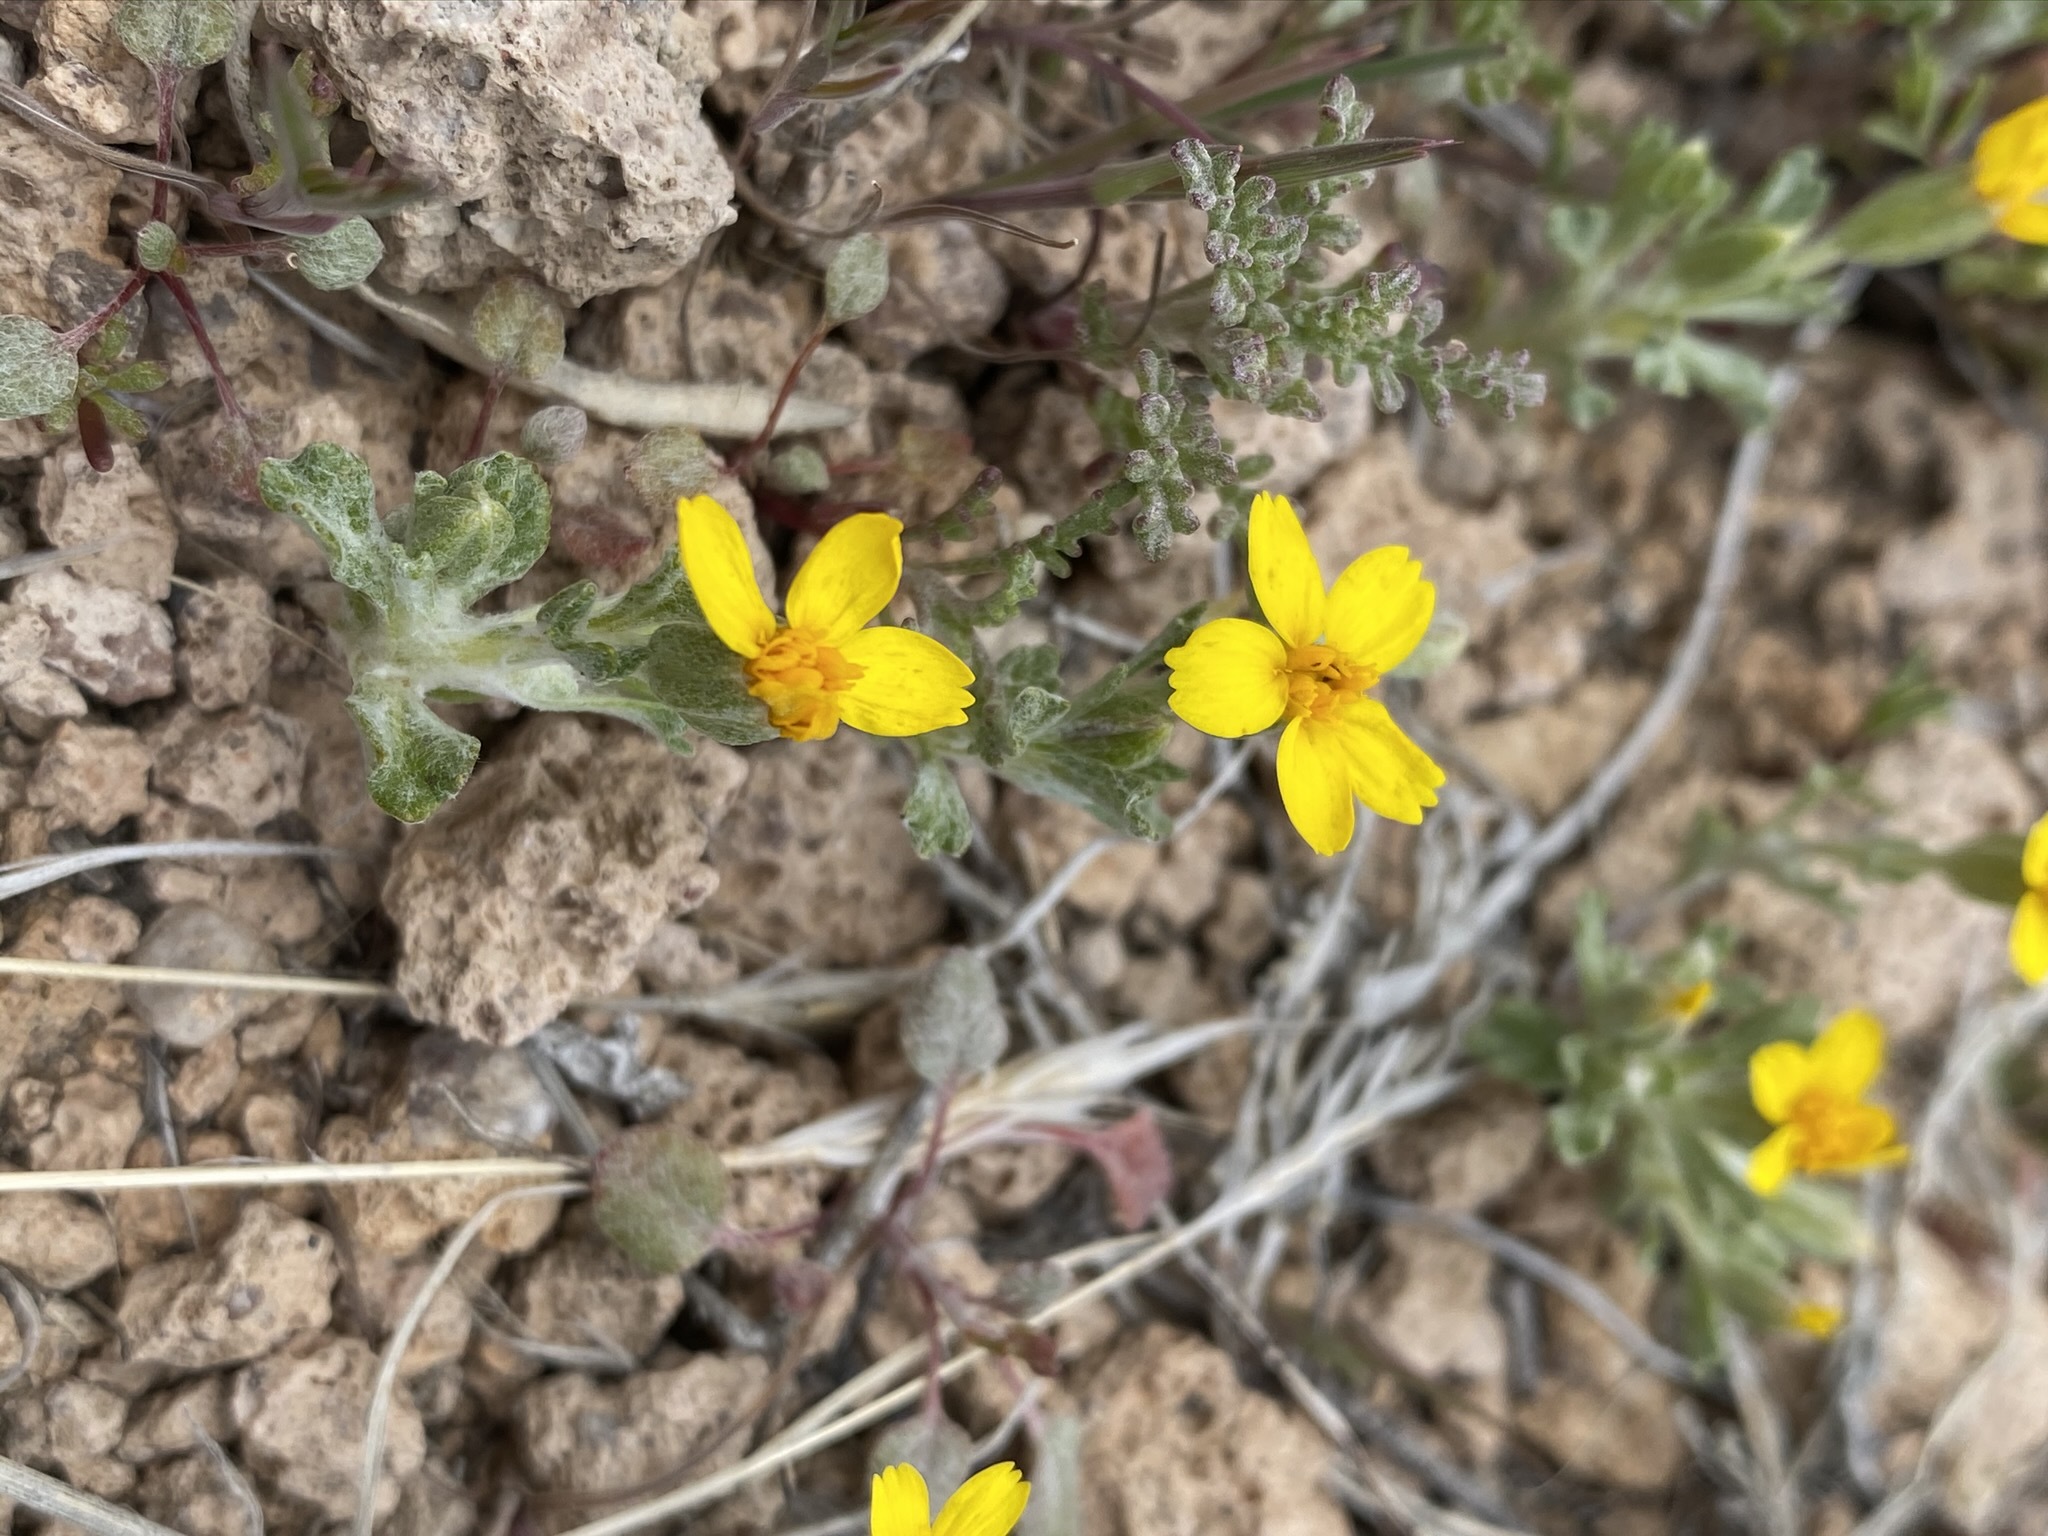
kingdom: Plantae
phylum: Tracheophyta
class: Magnoliopsida
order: Asterales
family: Asteraceae
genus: Syntrichopappus
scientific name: Syntrichopappus fremontii
